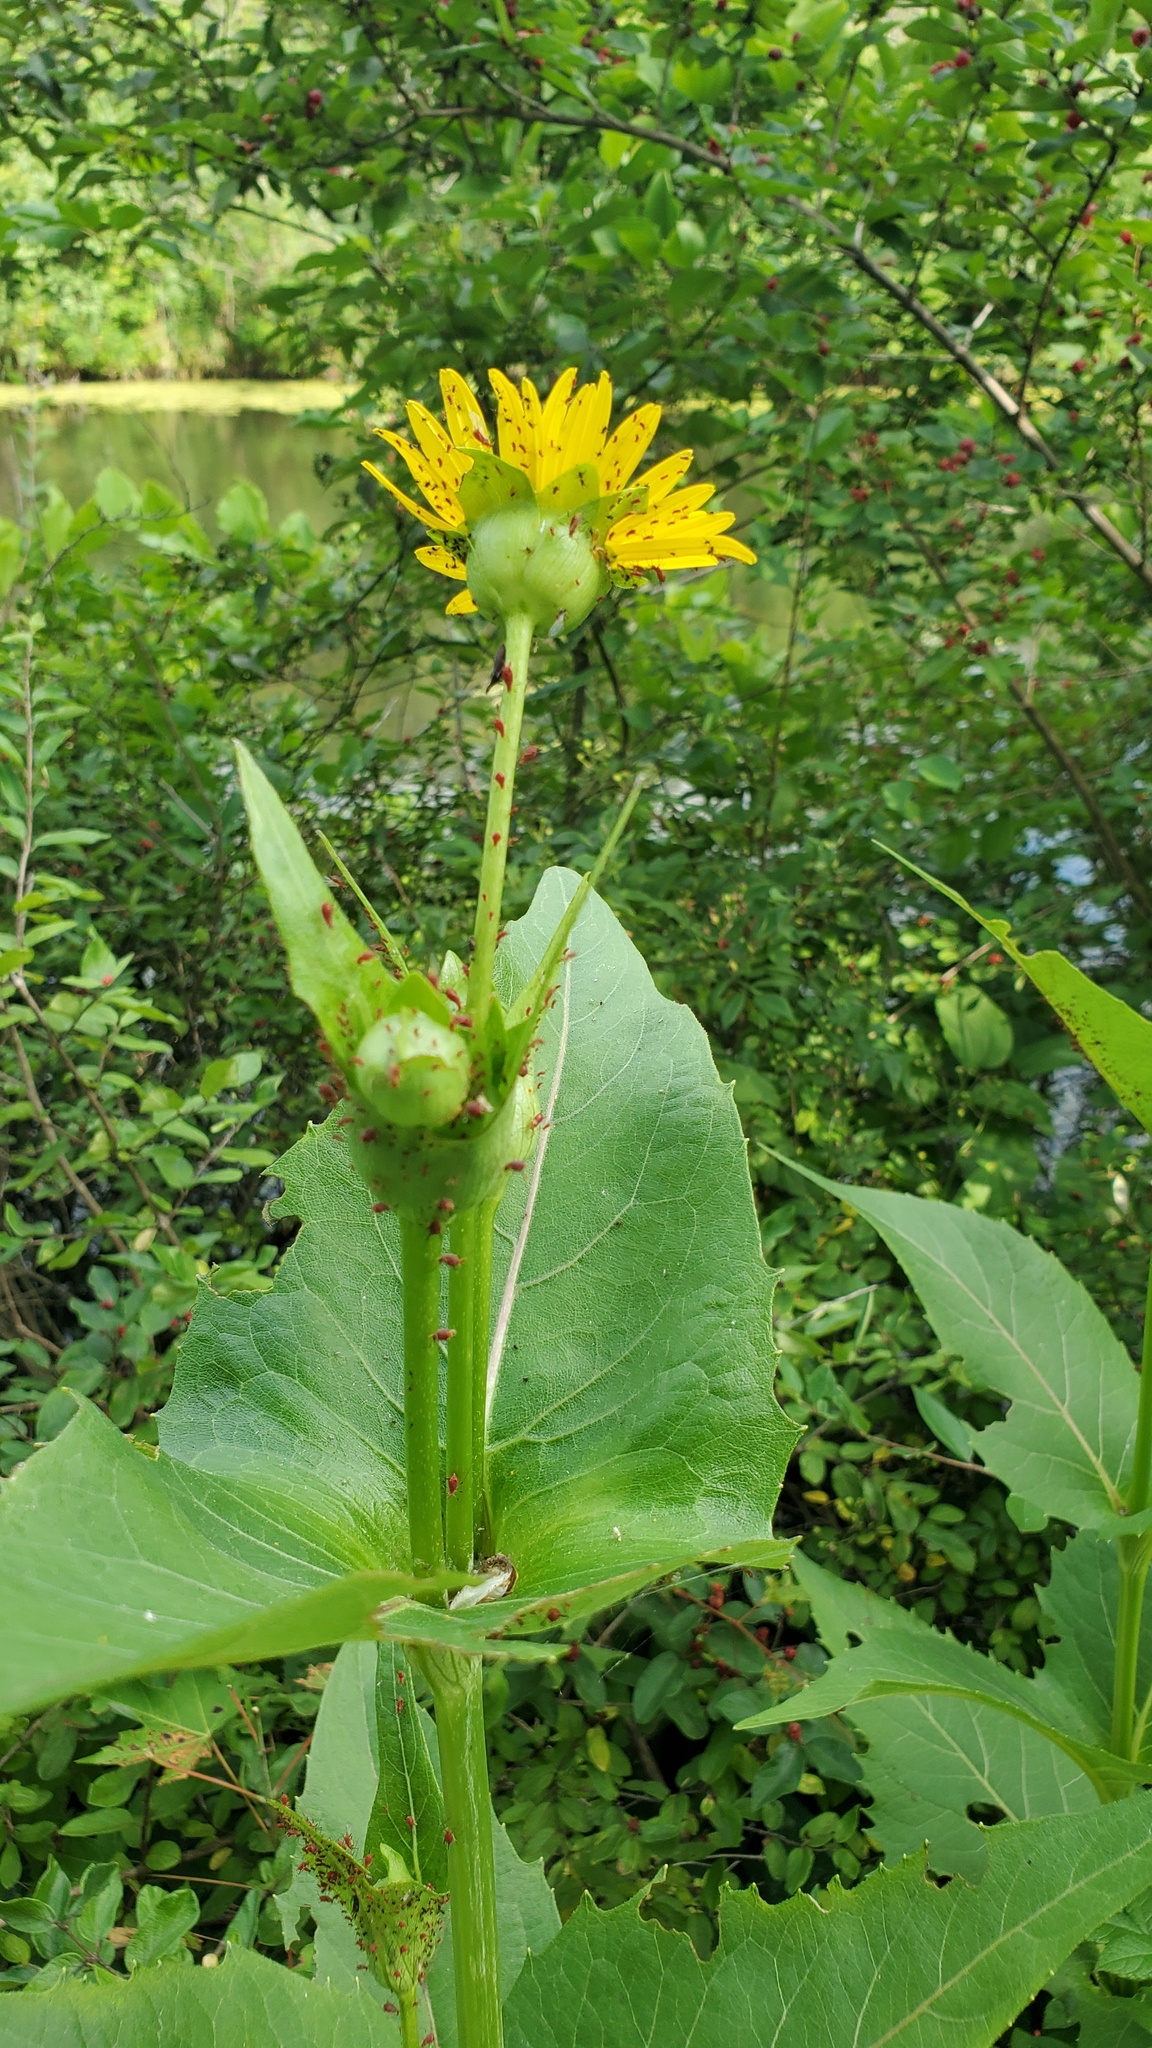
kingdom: Plantae
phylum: Tracheophyta
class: Magnoliopsida
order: Asterales
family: Asteraceae
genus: Silphium
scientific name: Silphium perfoliatum
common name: Cup-plant
